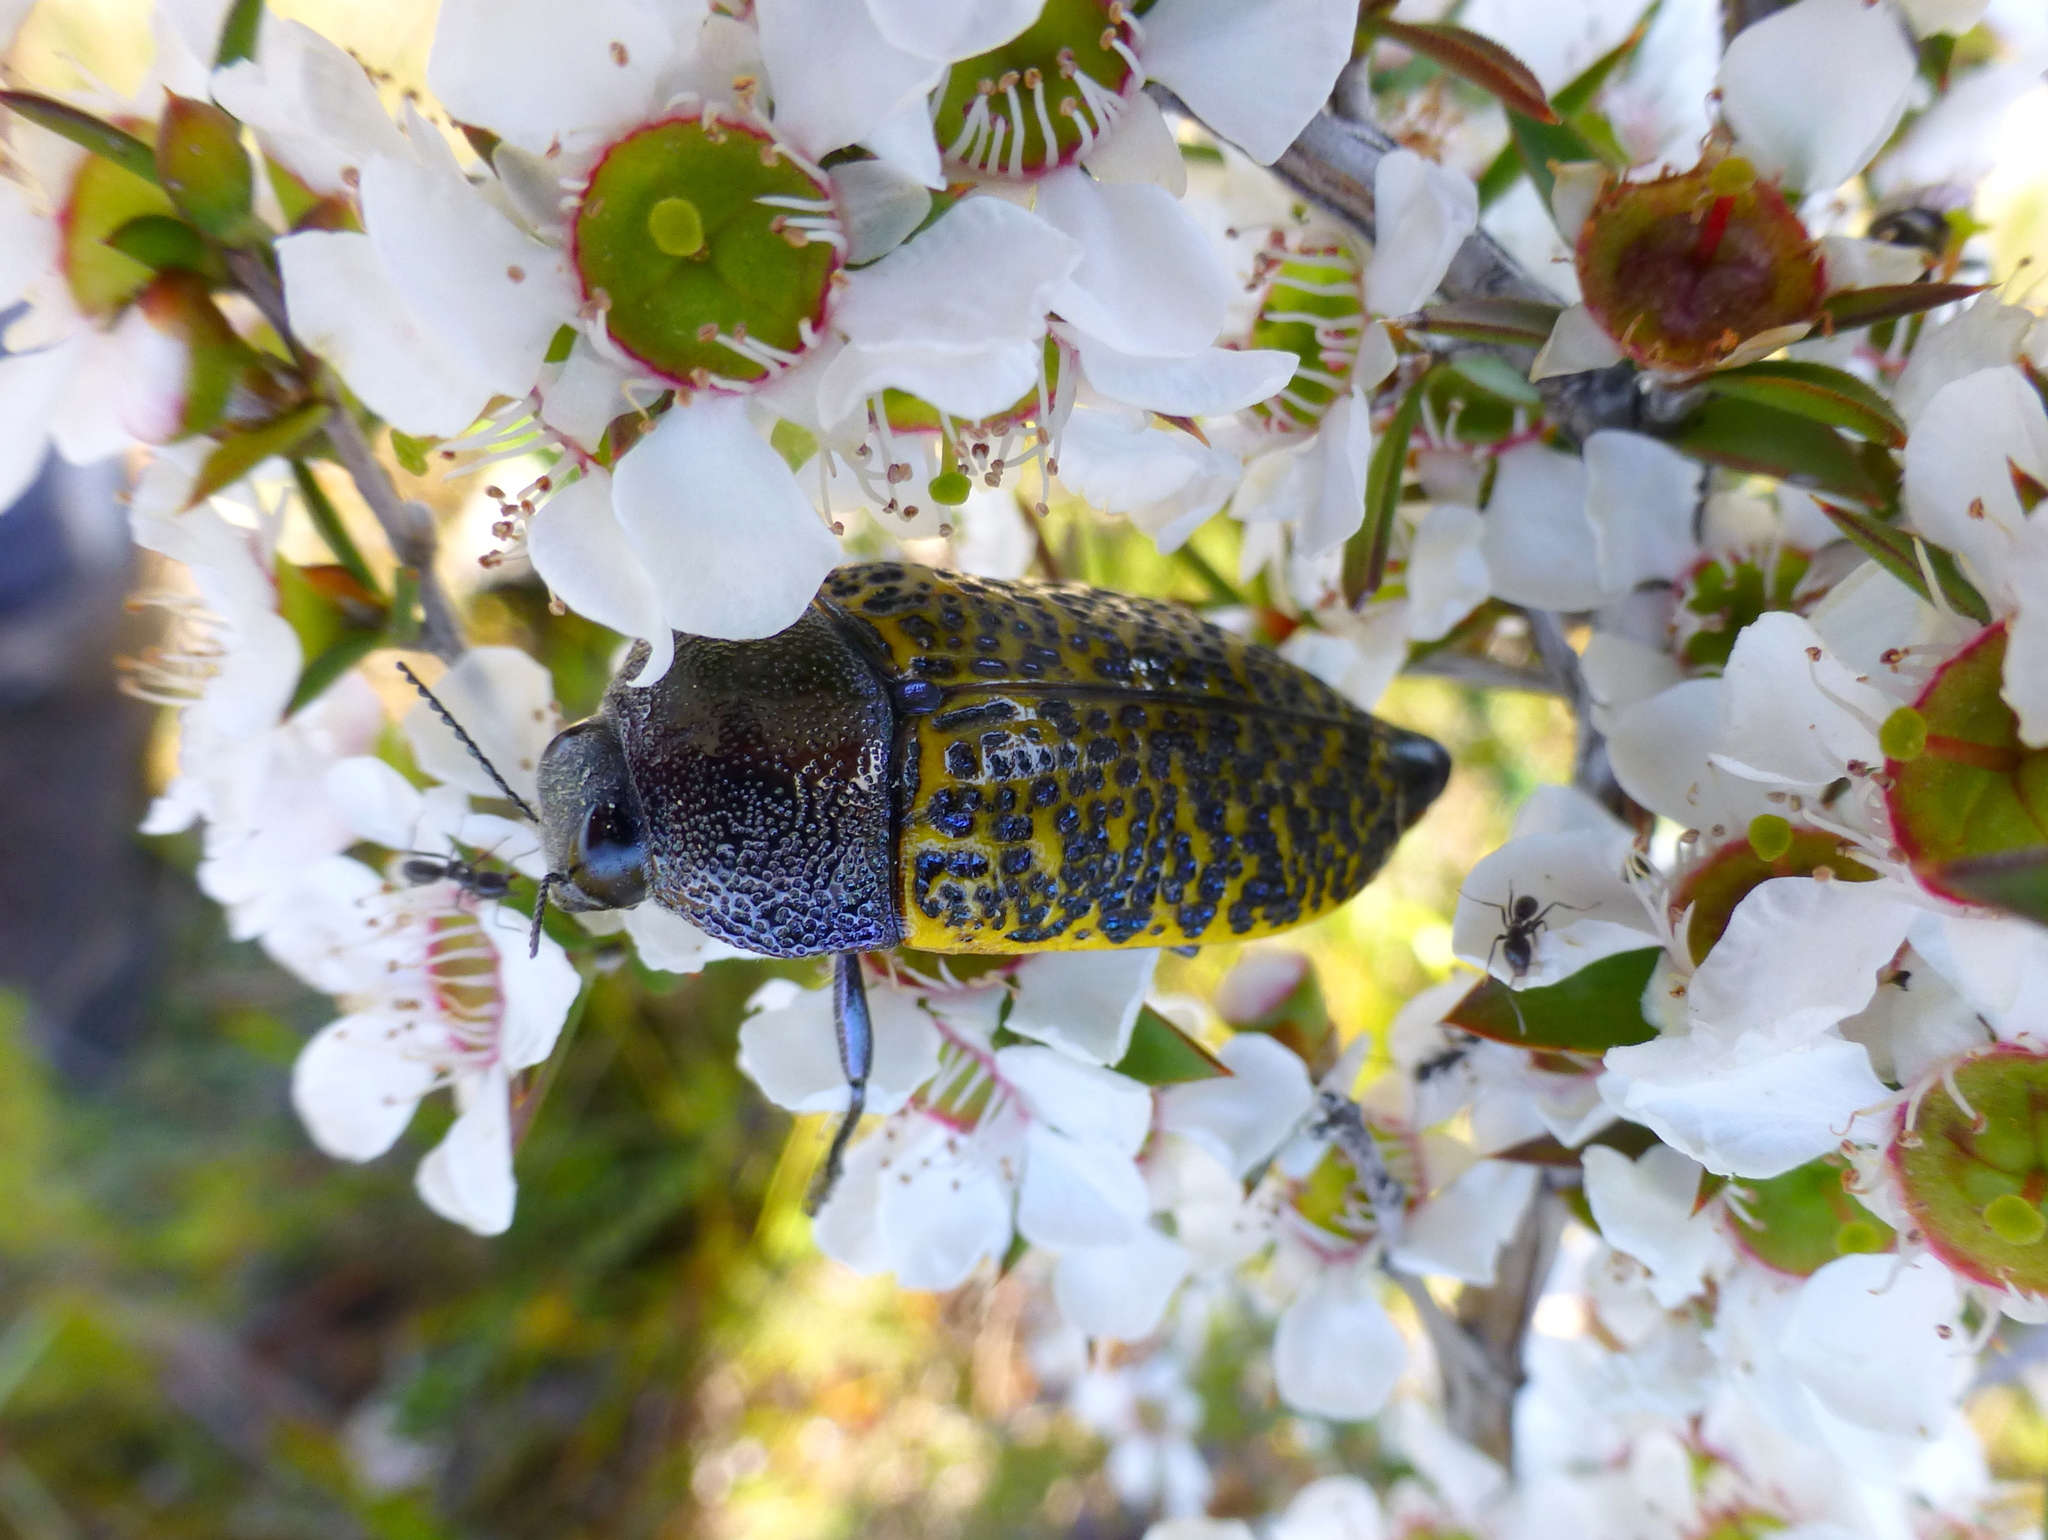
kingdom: Animalia
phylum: Arthropoda
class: Insecta
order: Coleoptera
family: Buprestidae
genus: Stigmodera
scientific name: Stigmodera macularia
